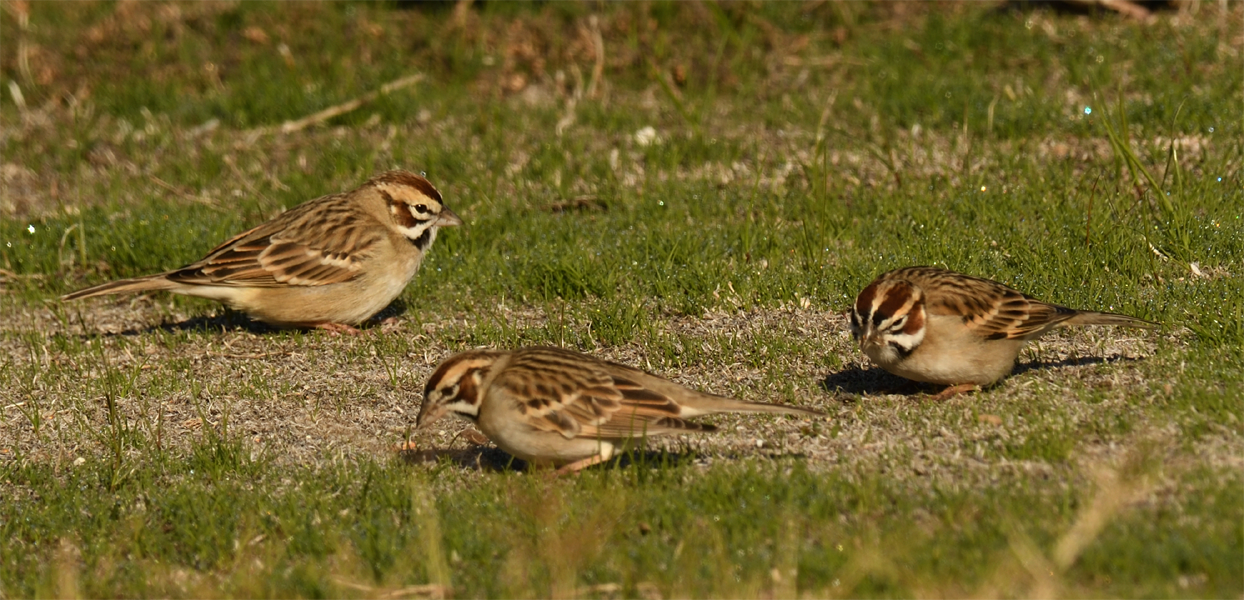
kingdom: Animalia
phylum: Chordata
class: Aves
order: Passeriformes
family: Passerellidae
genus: Chondestes
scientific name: Chondestes grammacus
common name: Lark sparrow
